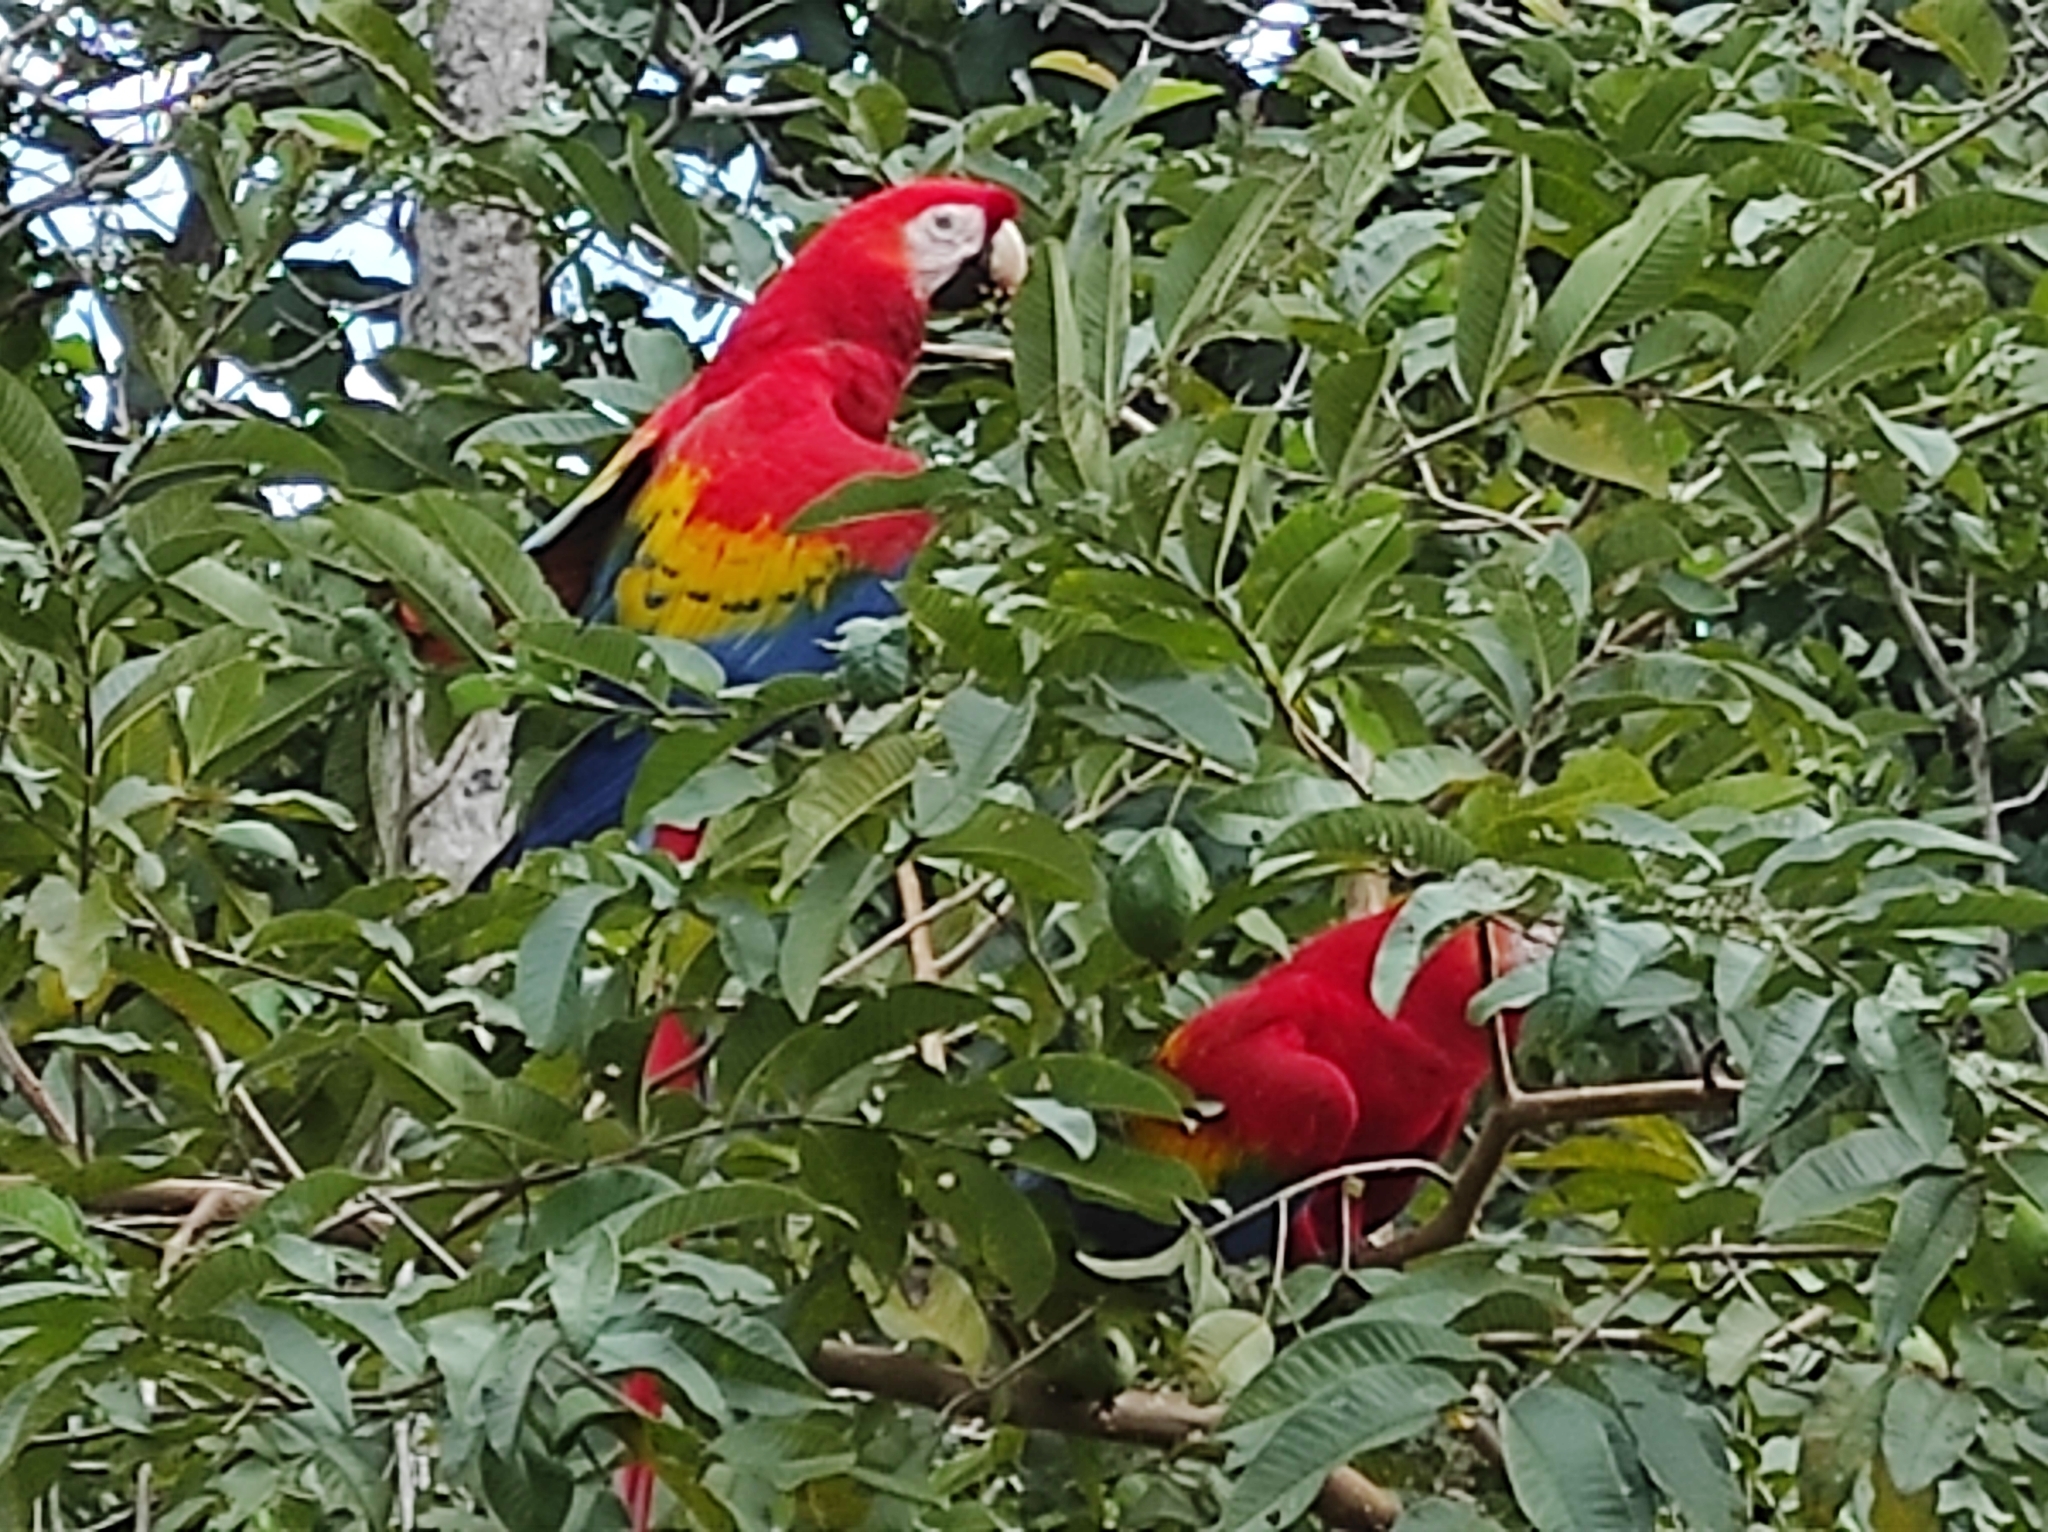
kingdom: Animalia
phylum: Chordata
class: Aves
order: Psittaciformes
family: Psittacidae
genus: Ara
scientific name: Ara macao
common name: Scarlet macaw
